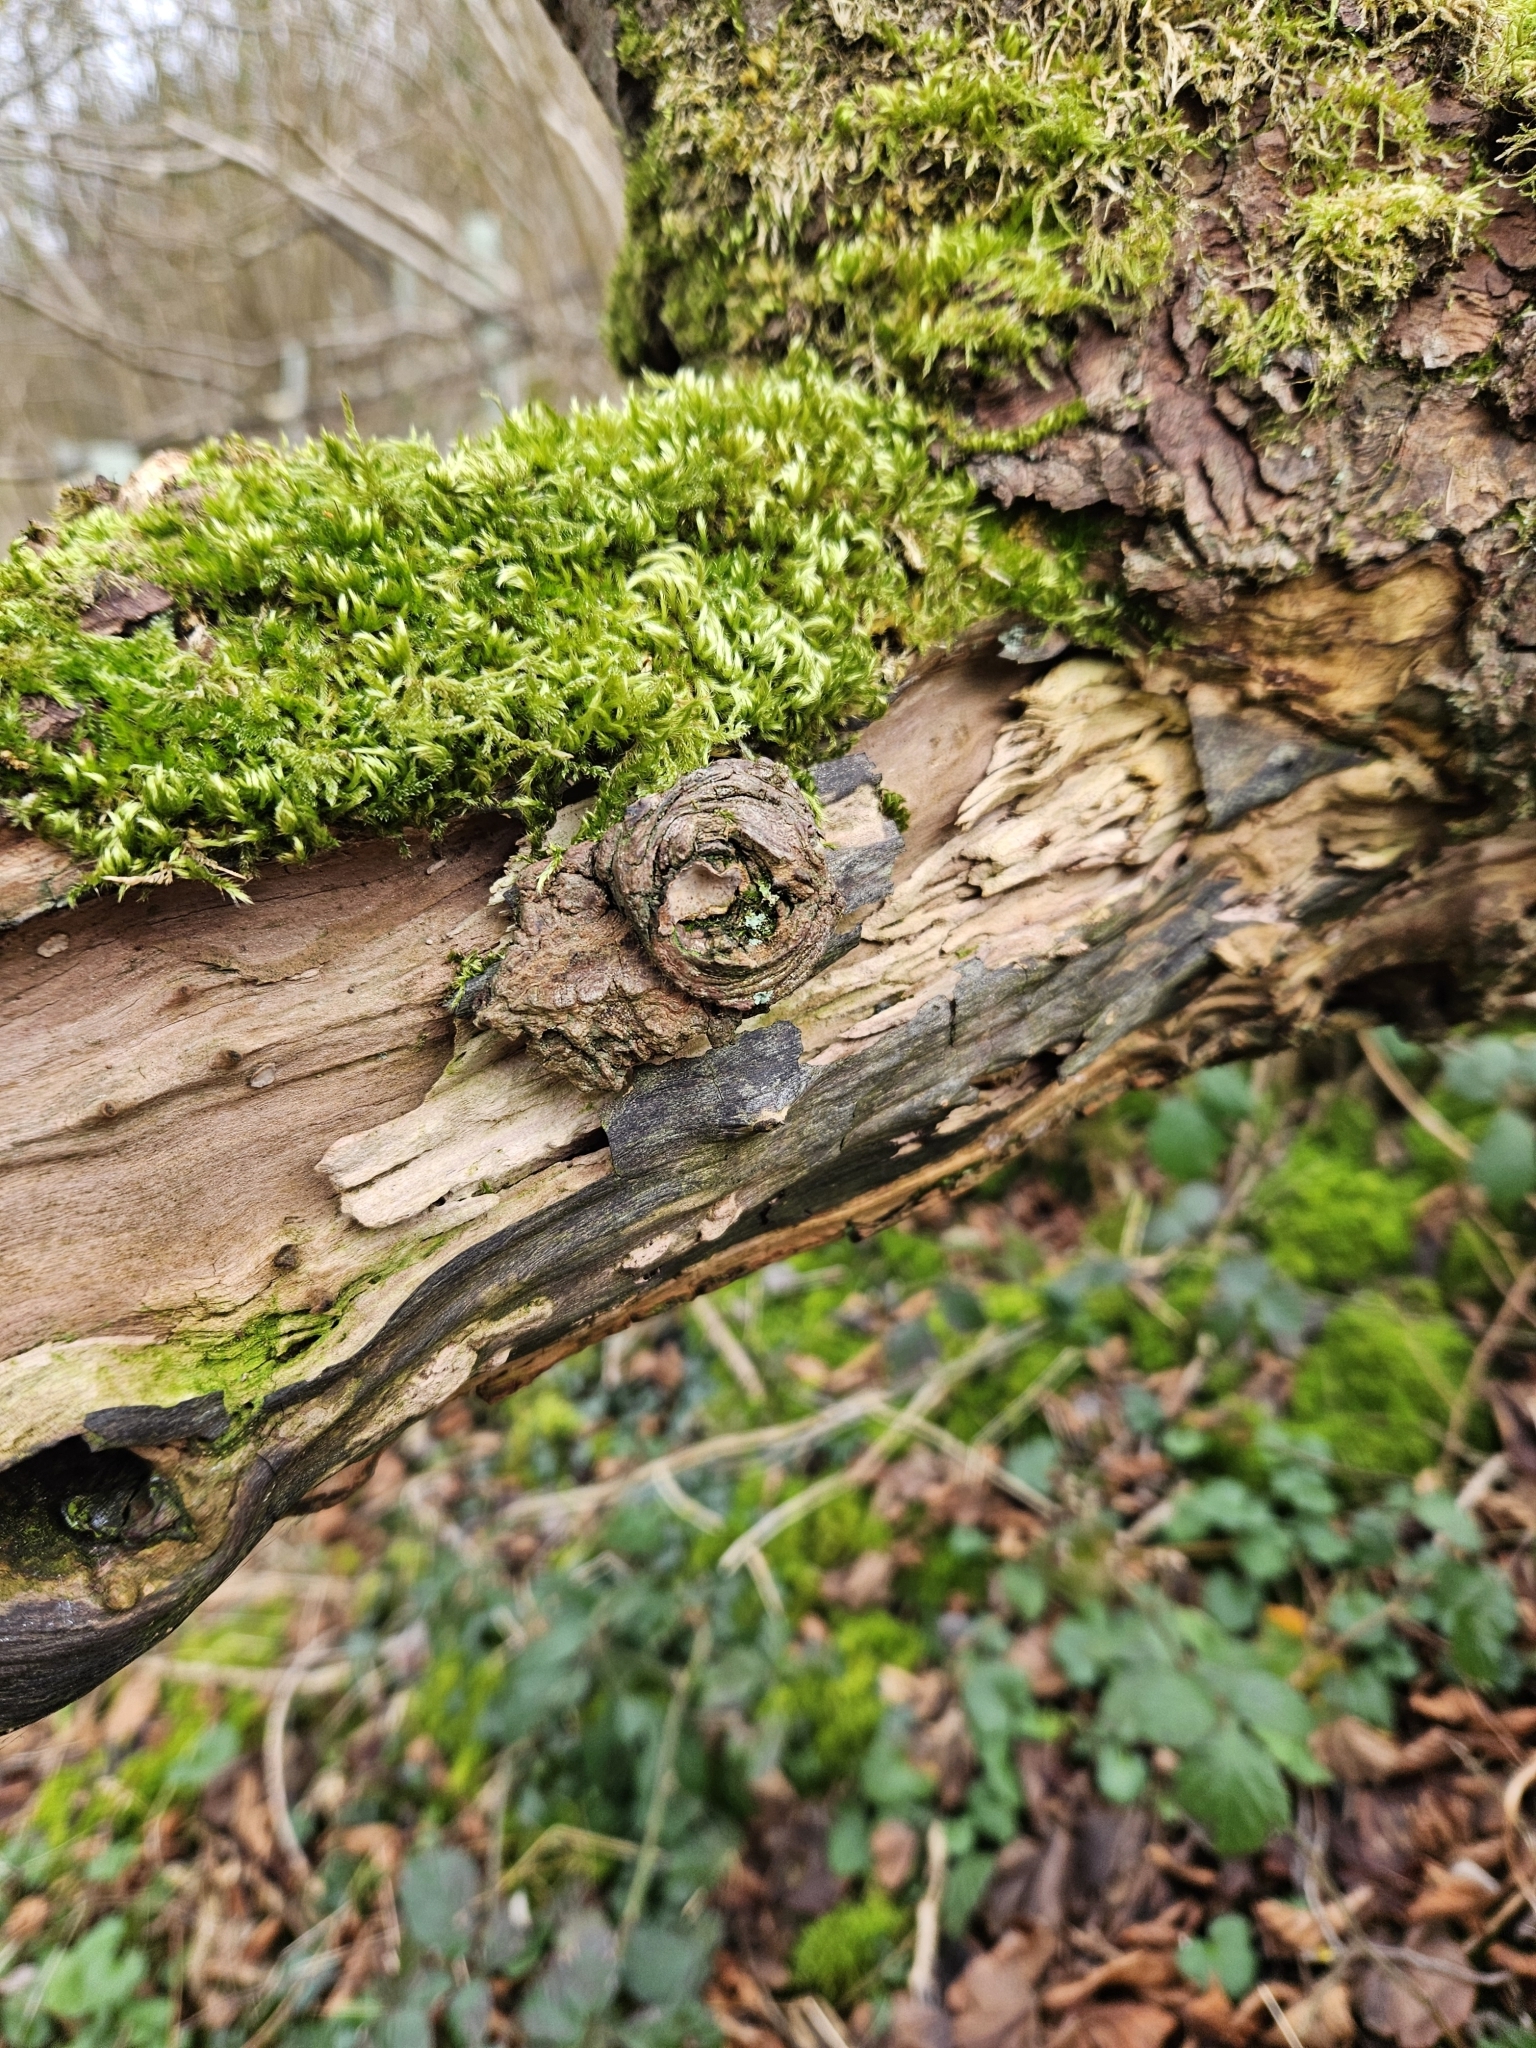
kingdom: Plantae
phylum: Bryophyta
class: Bryopsida
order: Hypnales
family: Brachytheciaceae
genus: Homalothecium
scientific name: Homalothecium sericeum
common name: Silky wall feather-moss
